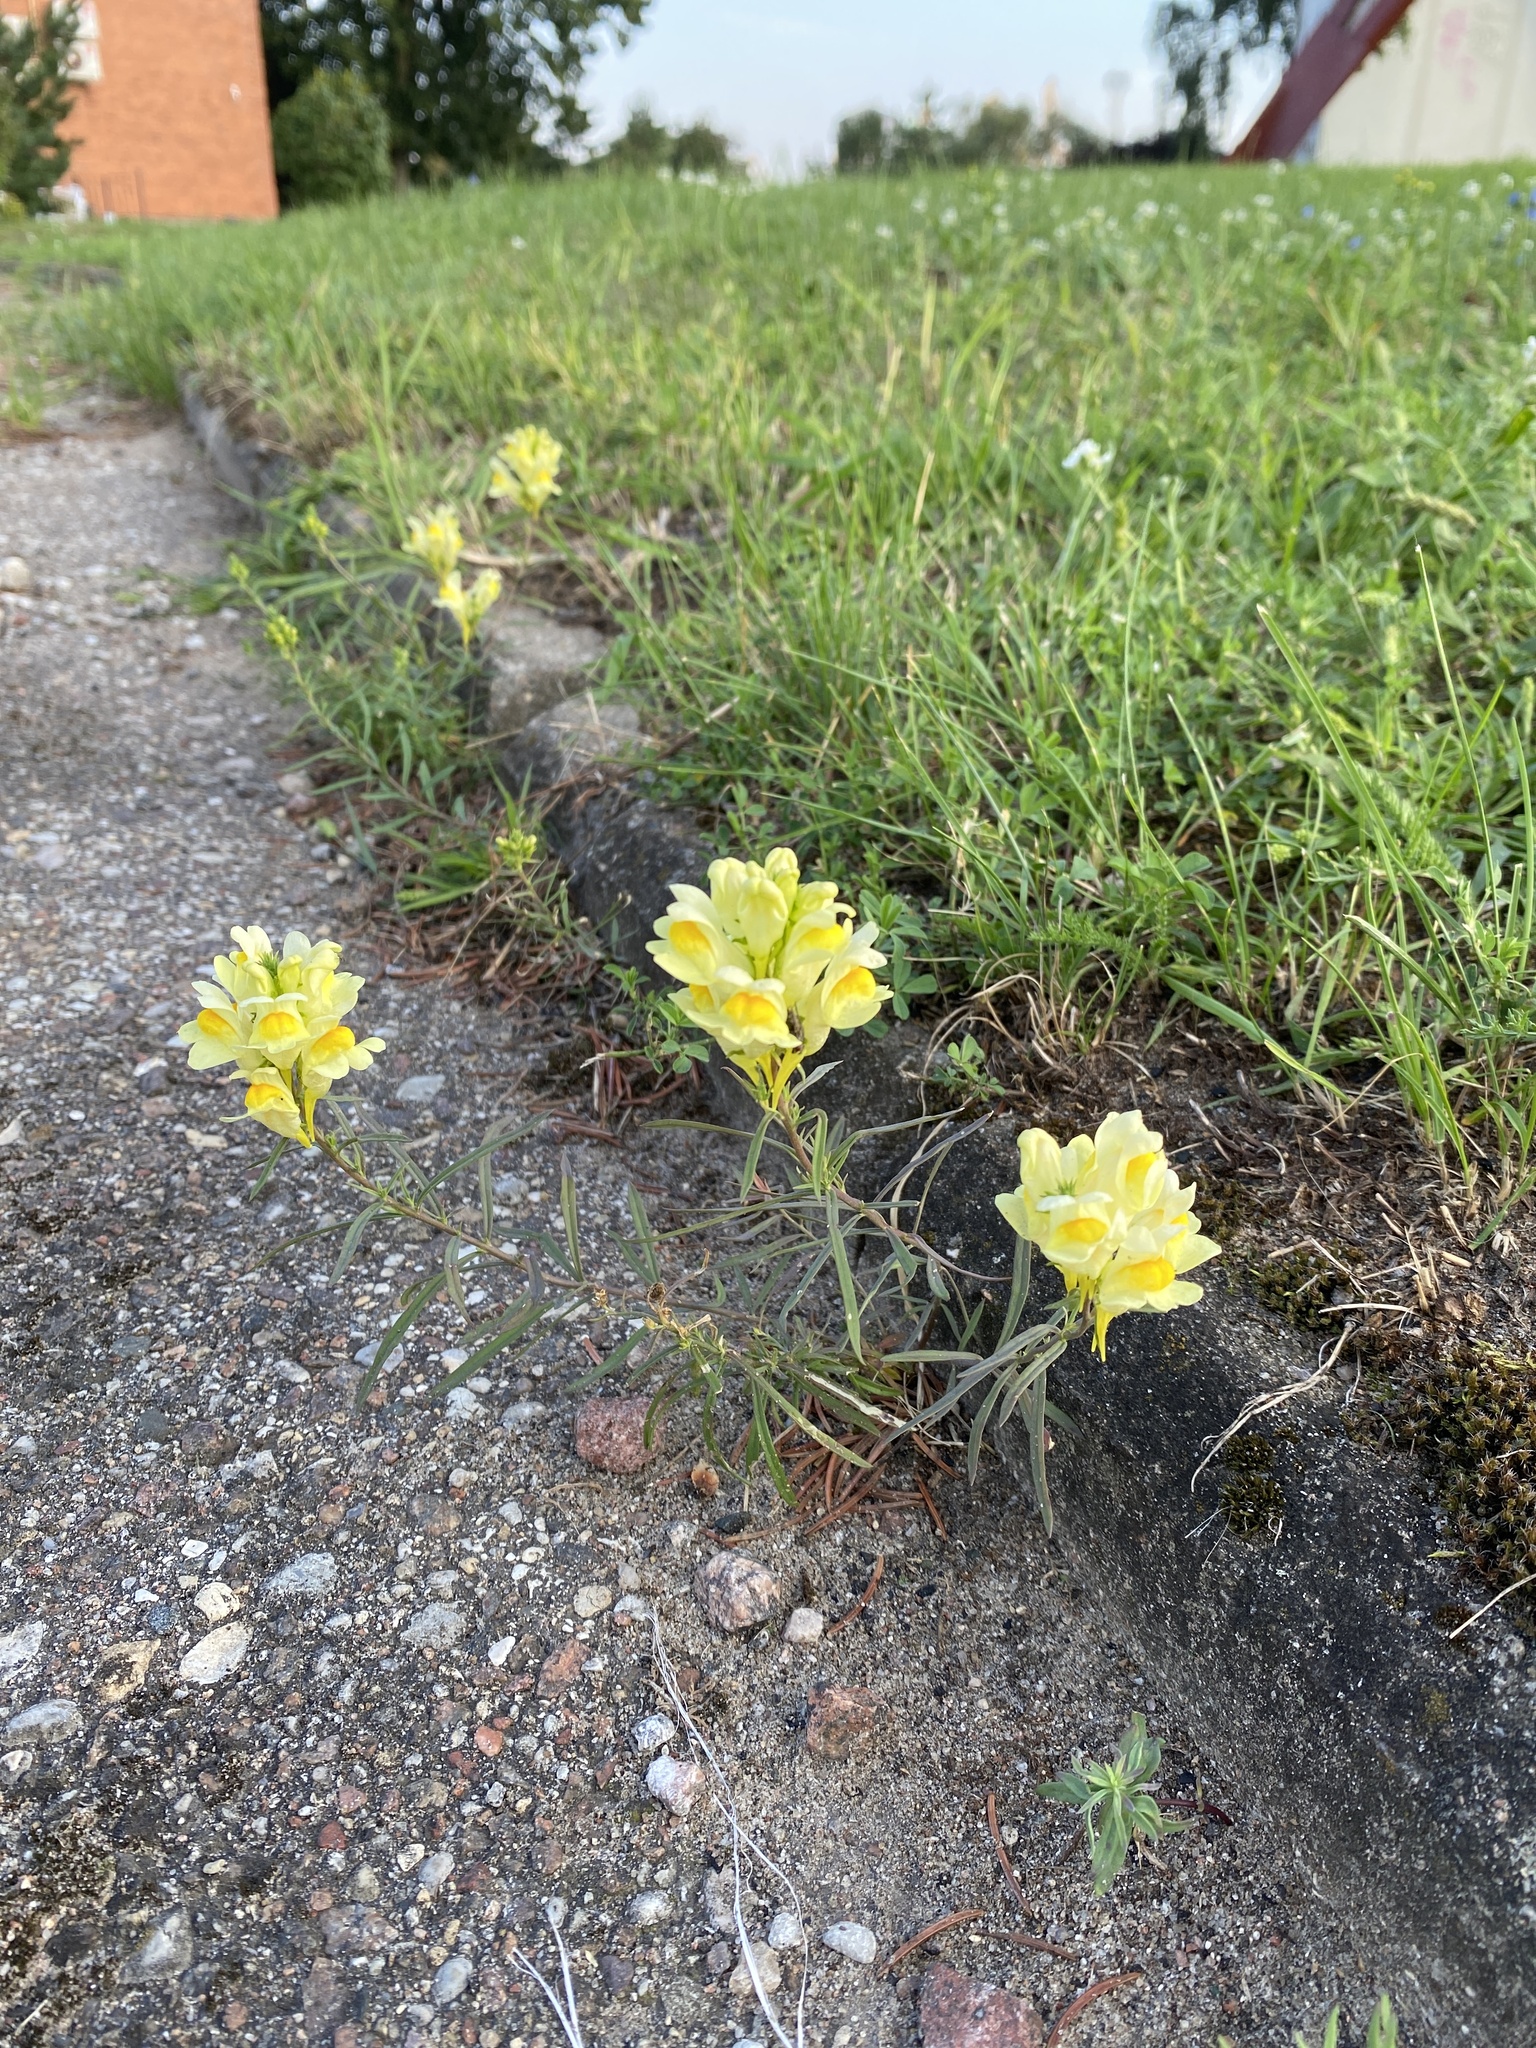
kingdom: Plantae
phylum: Tracheophyta
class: Magnoliopsida
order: Lamiales
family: Plantaginaceae
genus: Linaria
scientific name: Linaria vulgaris
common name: Butter and eggs
